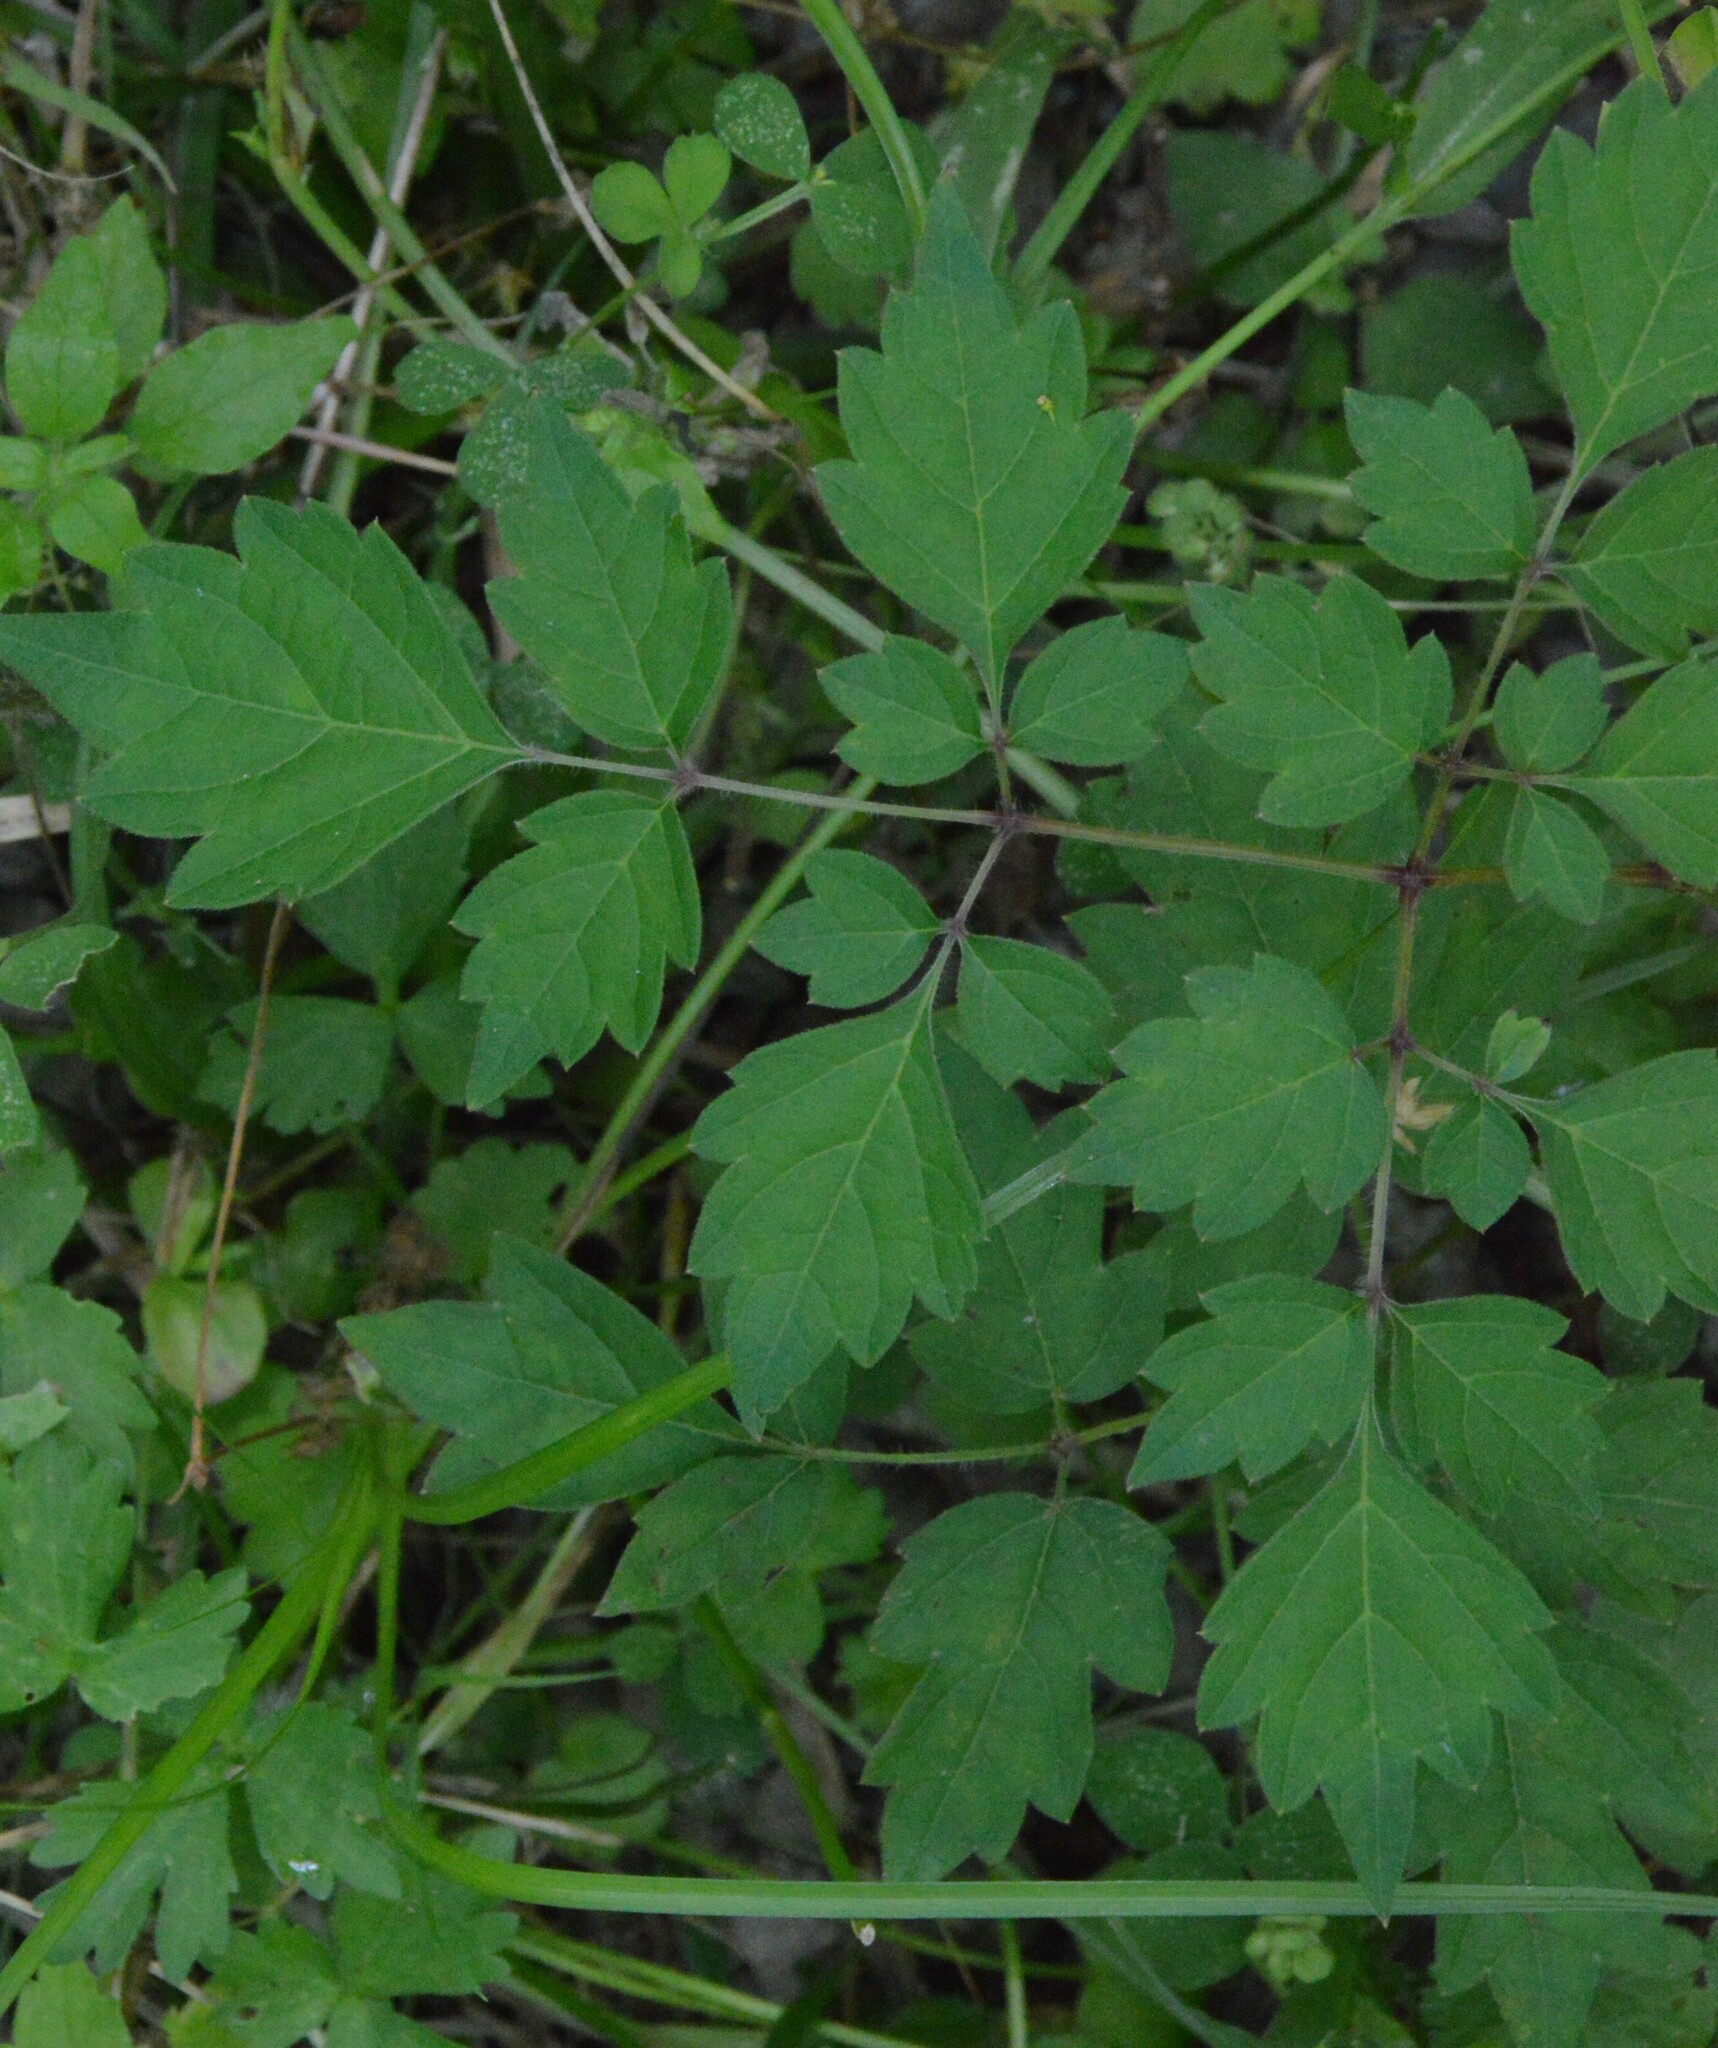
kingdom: Plantae
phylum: Tracheophyta
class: Magnoliopsida
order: Vitales
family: Vitaceae
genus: Nekemias
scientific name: Nekemias arborea
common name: Peppervine
